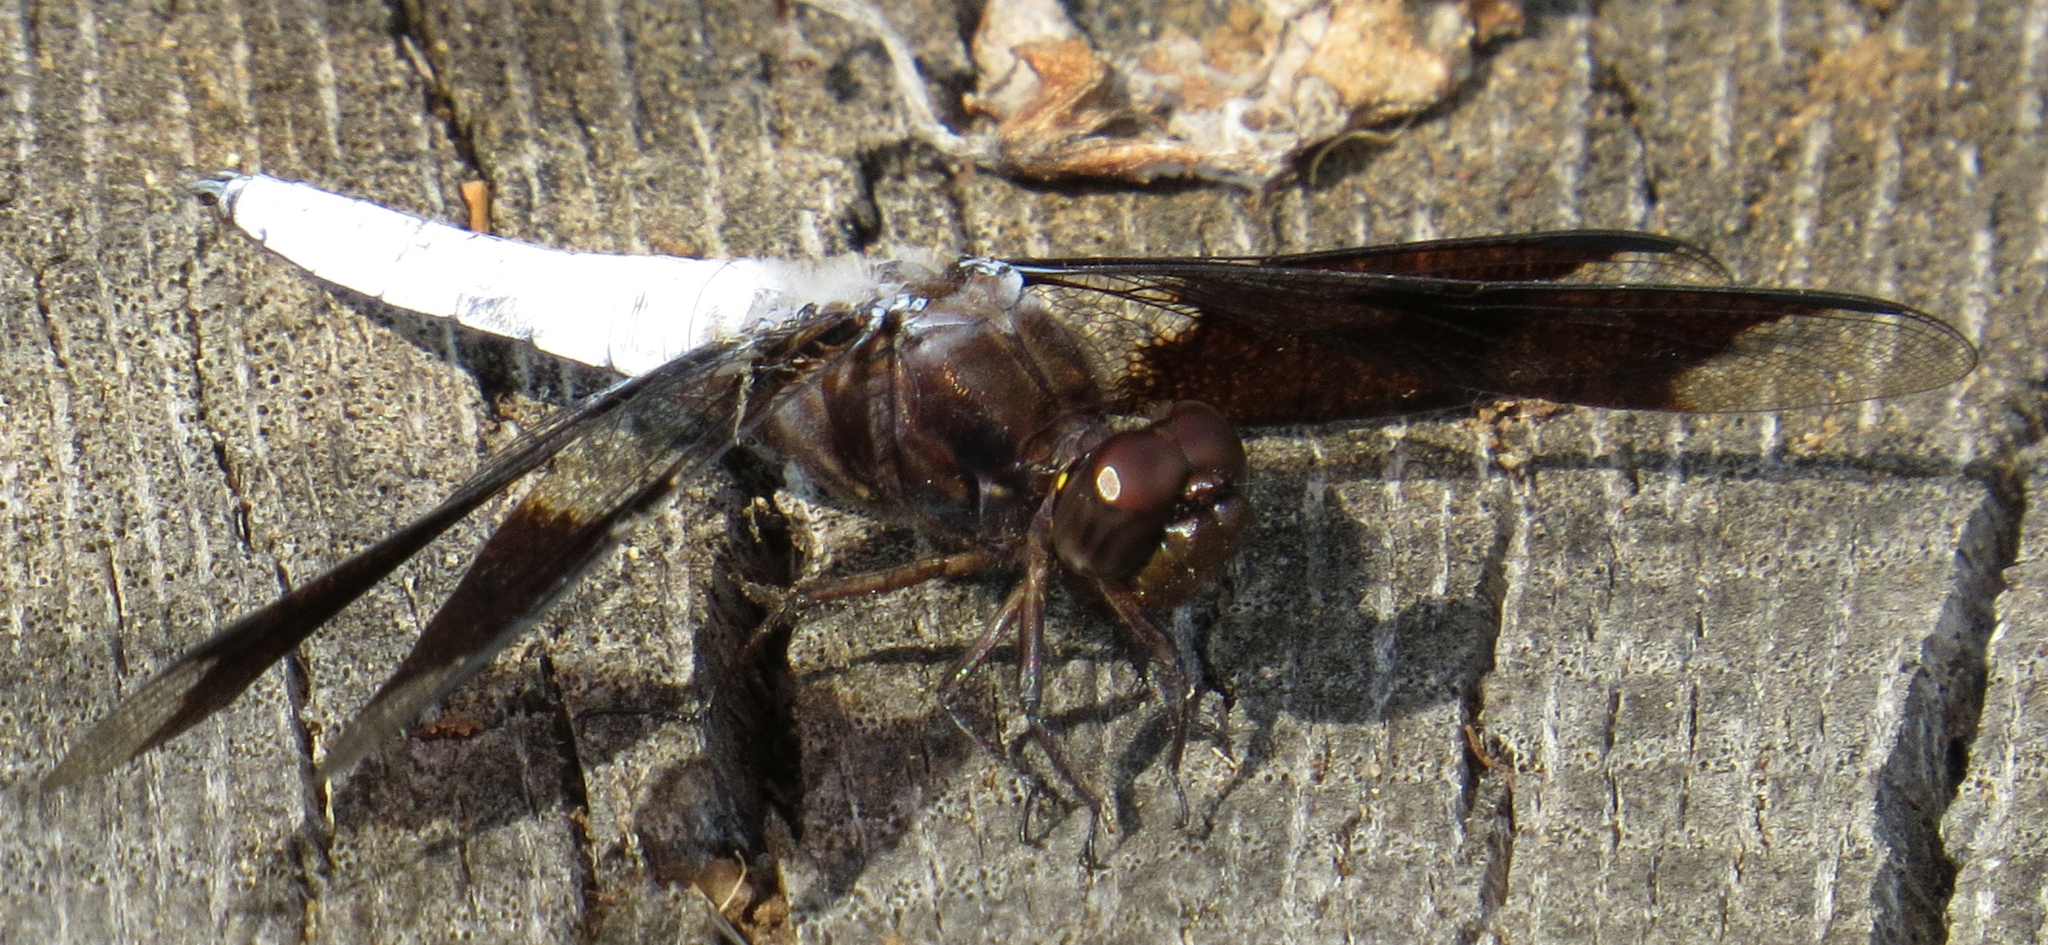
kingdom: Animalia
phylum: Arthropoda
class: Insecta
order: Odonata
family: Libellulidae
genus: Plathemis
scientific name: Plathemis lydia
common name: Common whitetail
